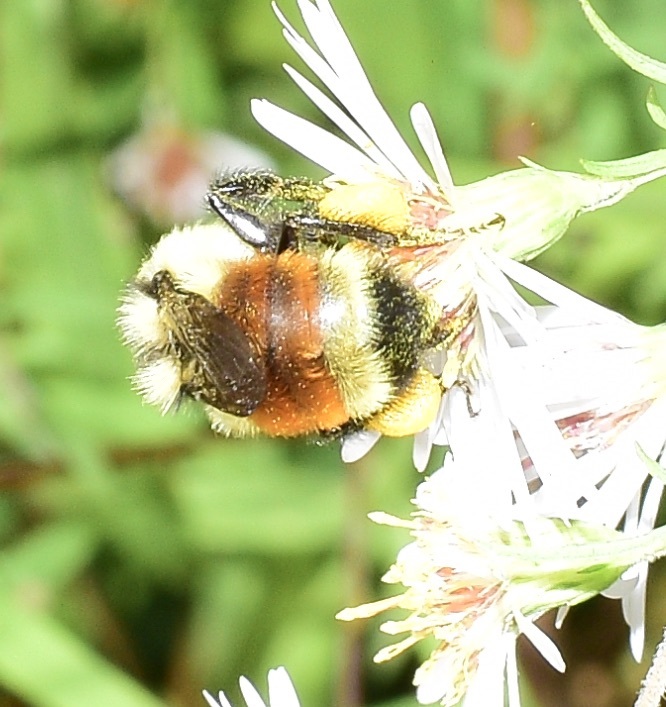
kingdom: Animalia
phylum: Arthropoda
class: Insecta
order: Hymenoptera
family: Apidae
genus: Bombus
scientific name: Bombus ternarius
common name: Tri-colored bumble bee
